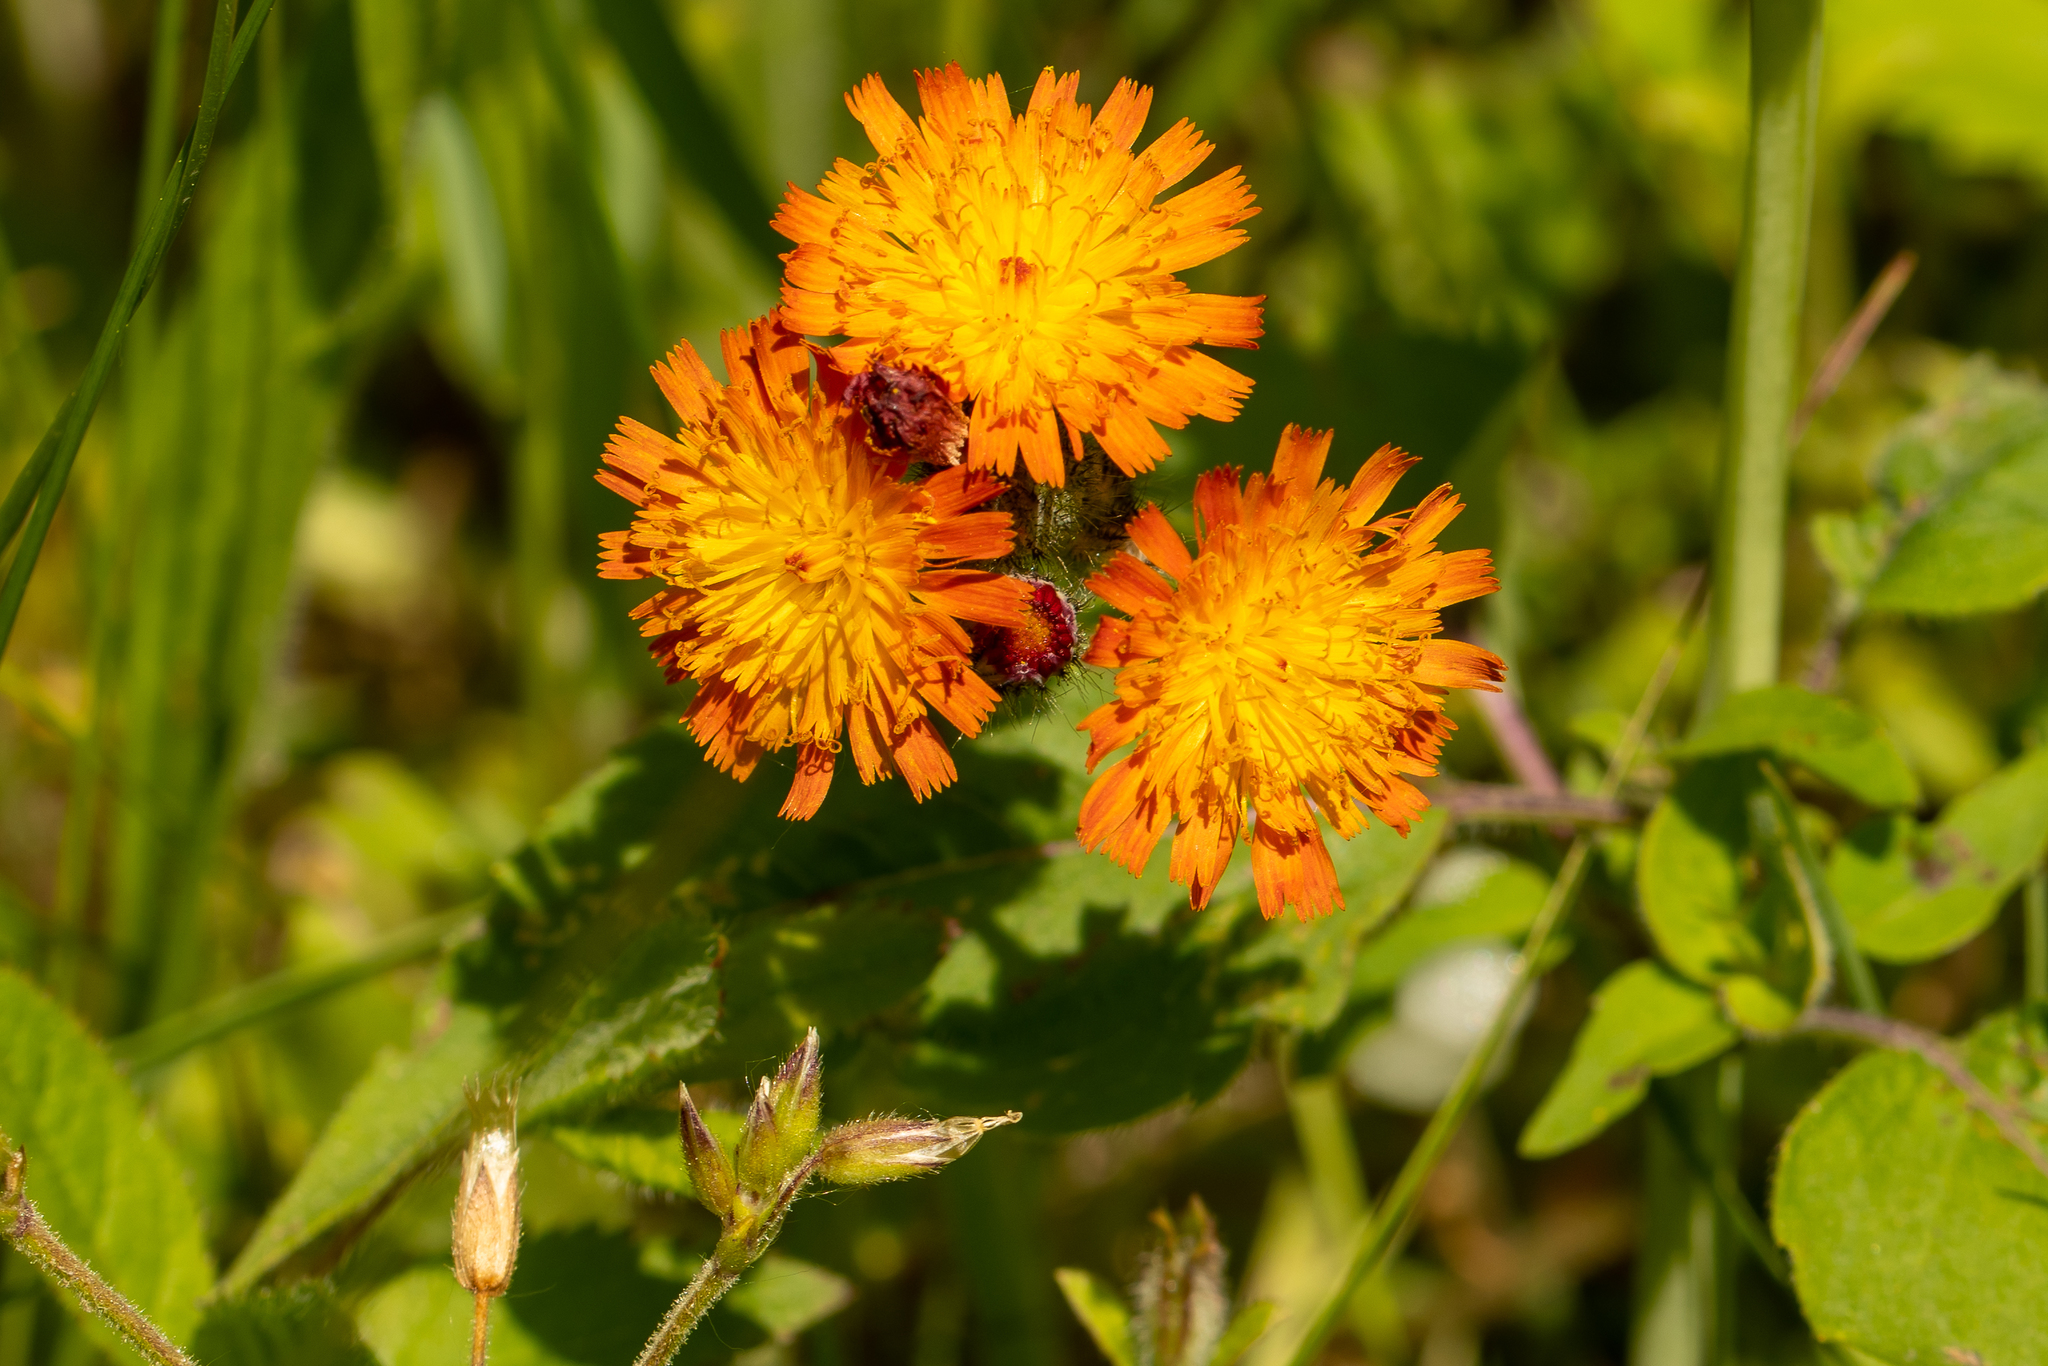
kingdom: Plantae
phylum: Tracheophyta
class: Magnoliopsida
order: Asterales
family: Asteraceae
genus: Pilosella
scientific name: Pilosella aurantiaca
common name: Fox-and-cubs
